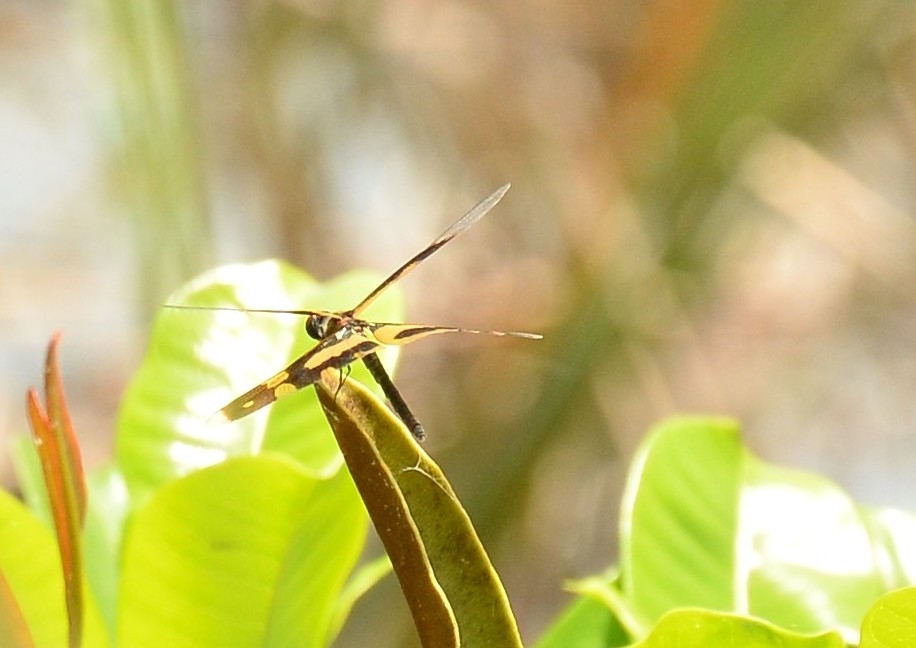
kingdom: Animalia
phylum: Arthropoda
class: Insecta
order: Odonata
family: Libellulidae
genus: Rhyothemis
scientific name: Rhyothemis variegata
